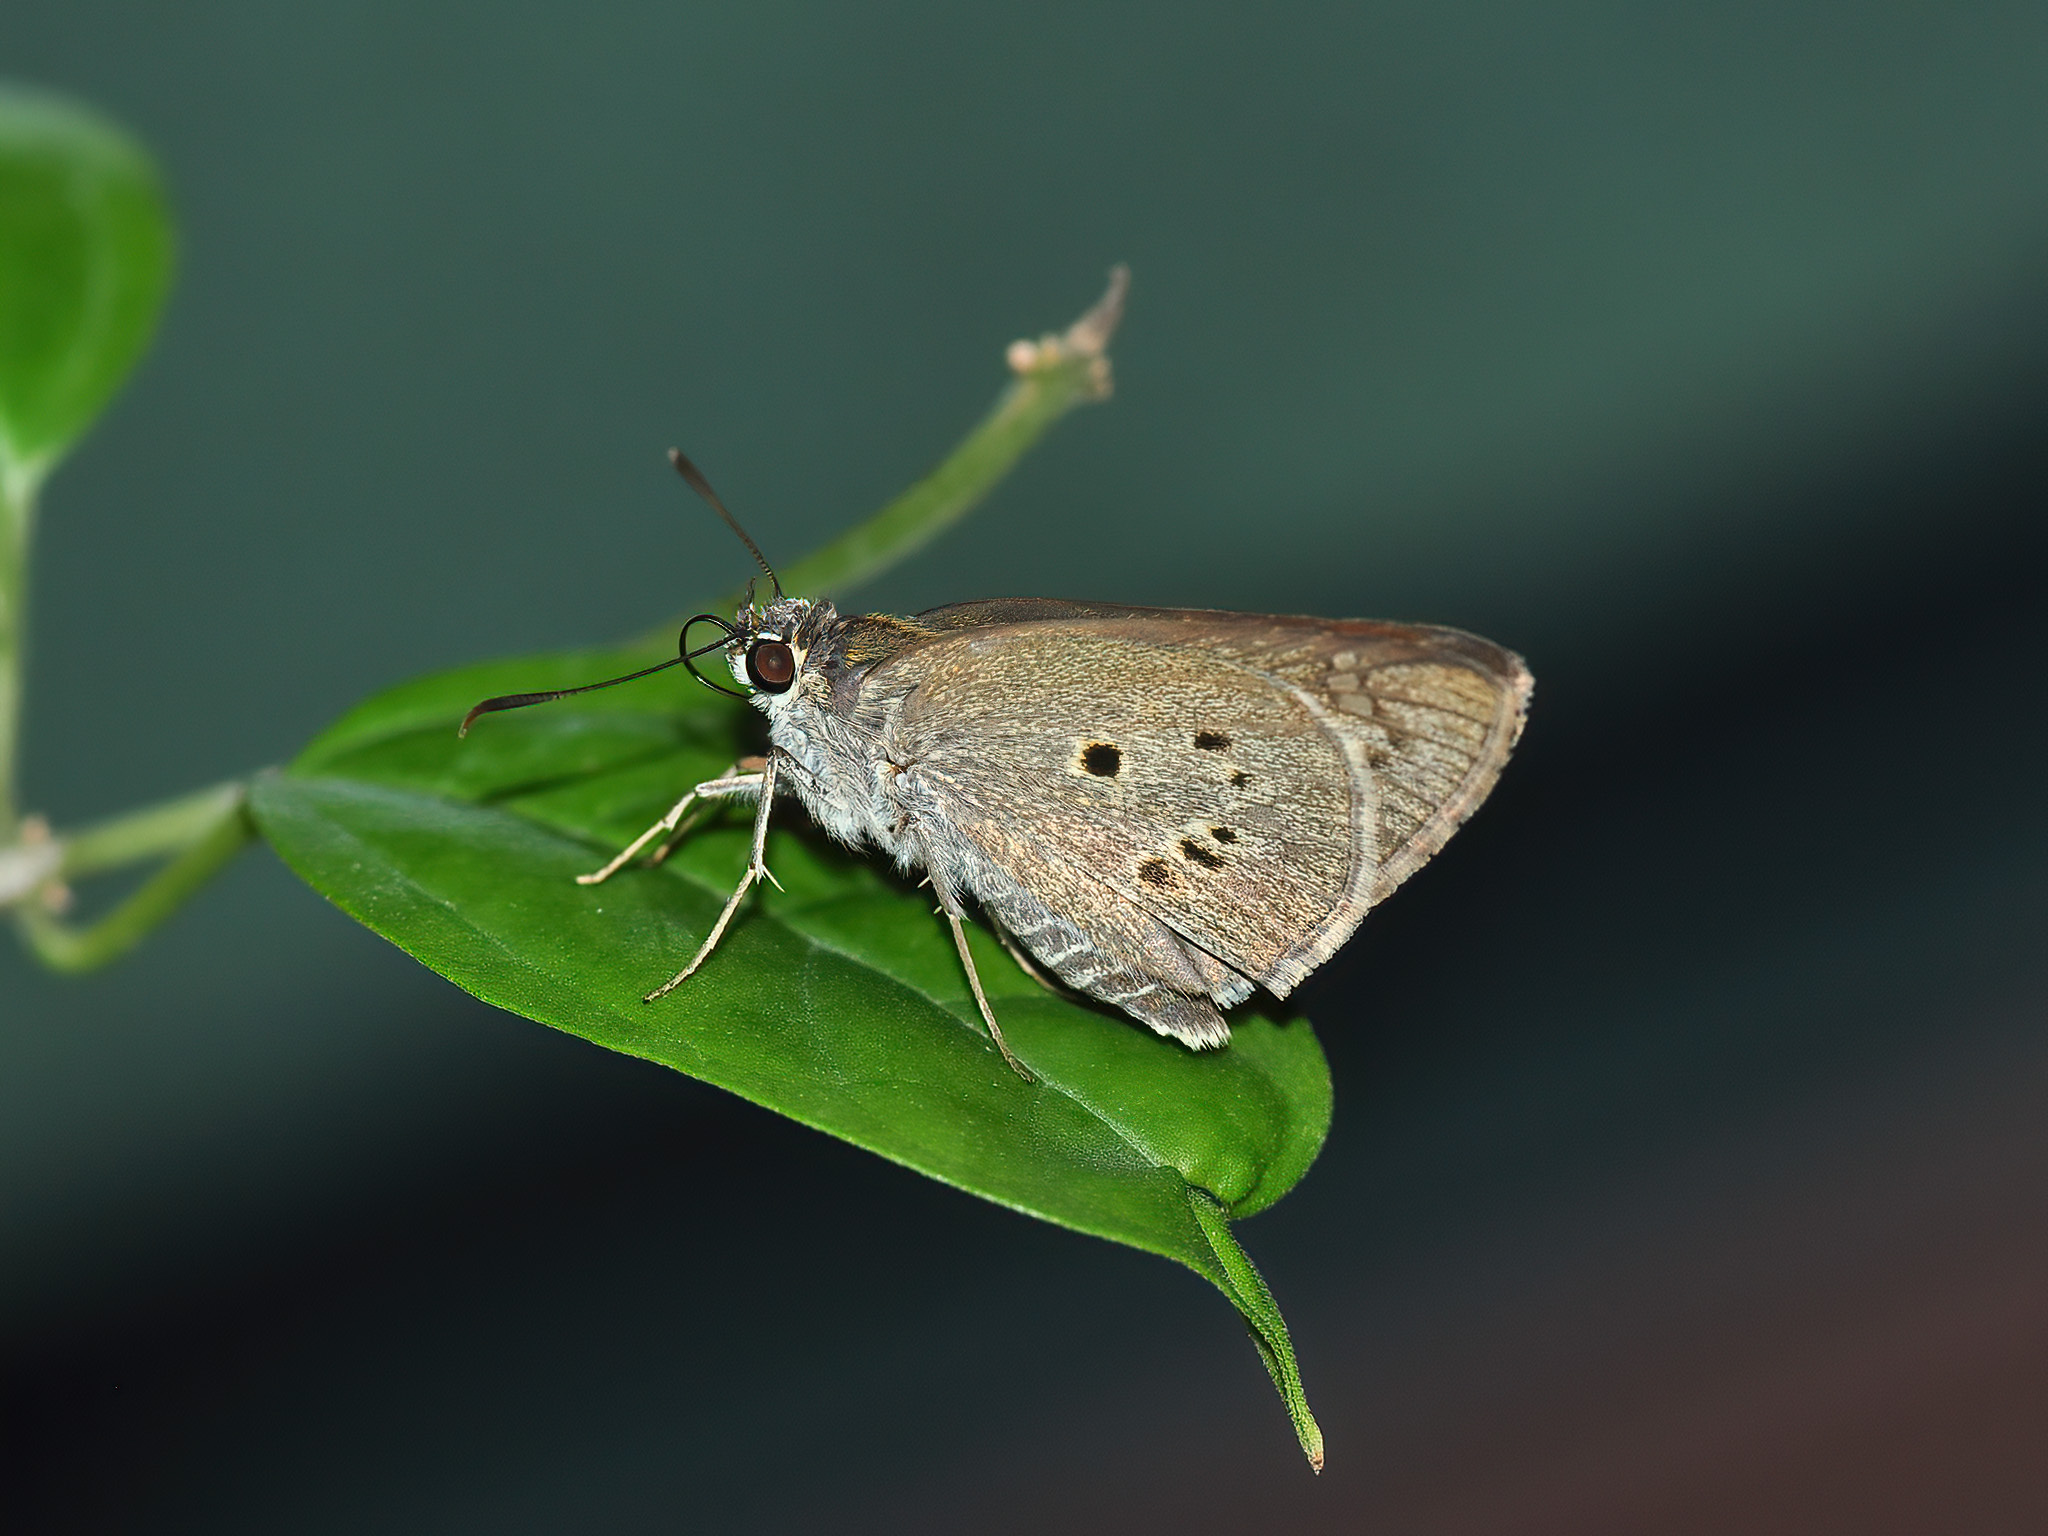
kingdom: Animalia
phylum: Arthropoda
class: Insecta
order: Lepidoptera
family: Hesperiidae
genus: Suastus
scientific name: Suastus gremius
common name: Indian palm bob
